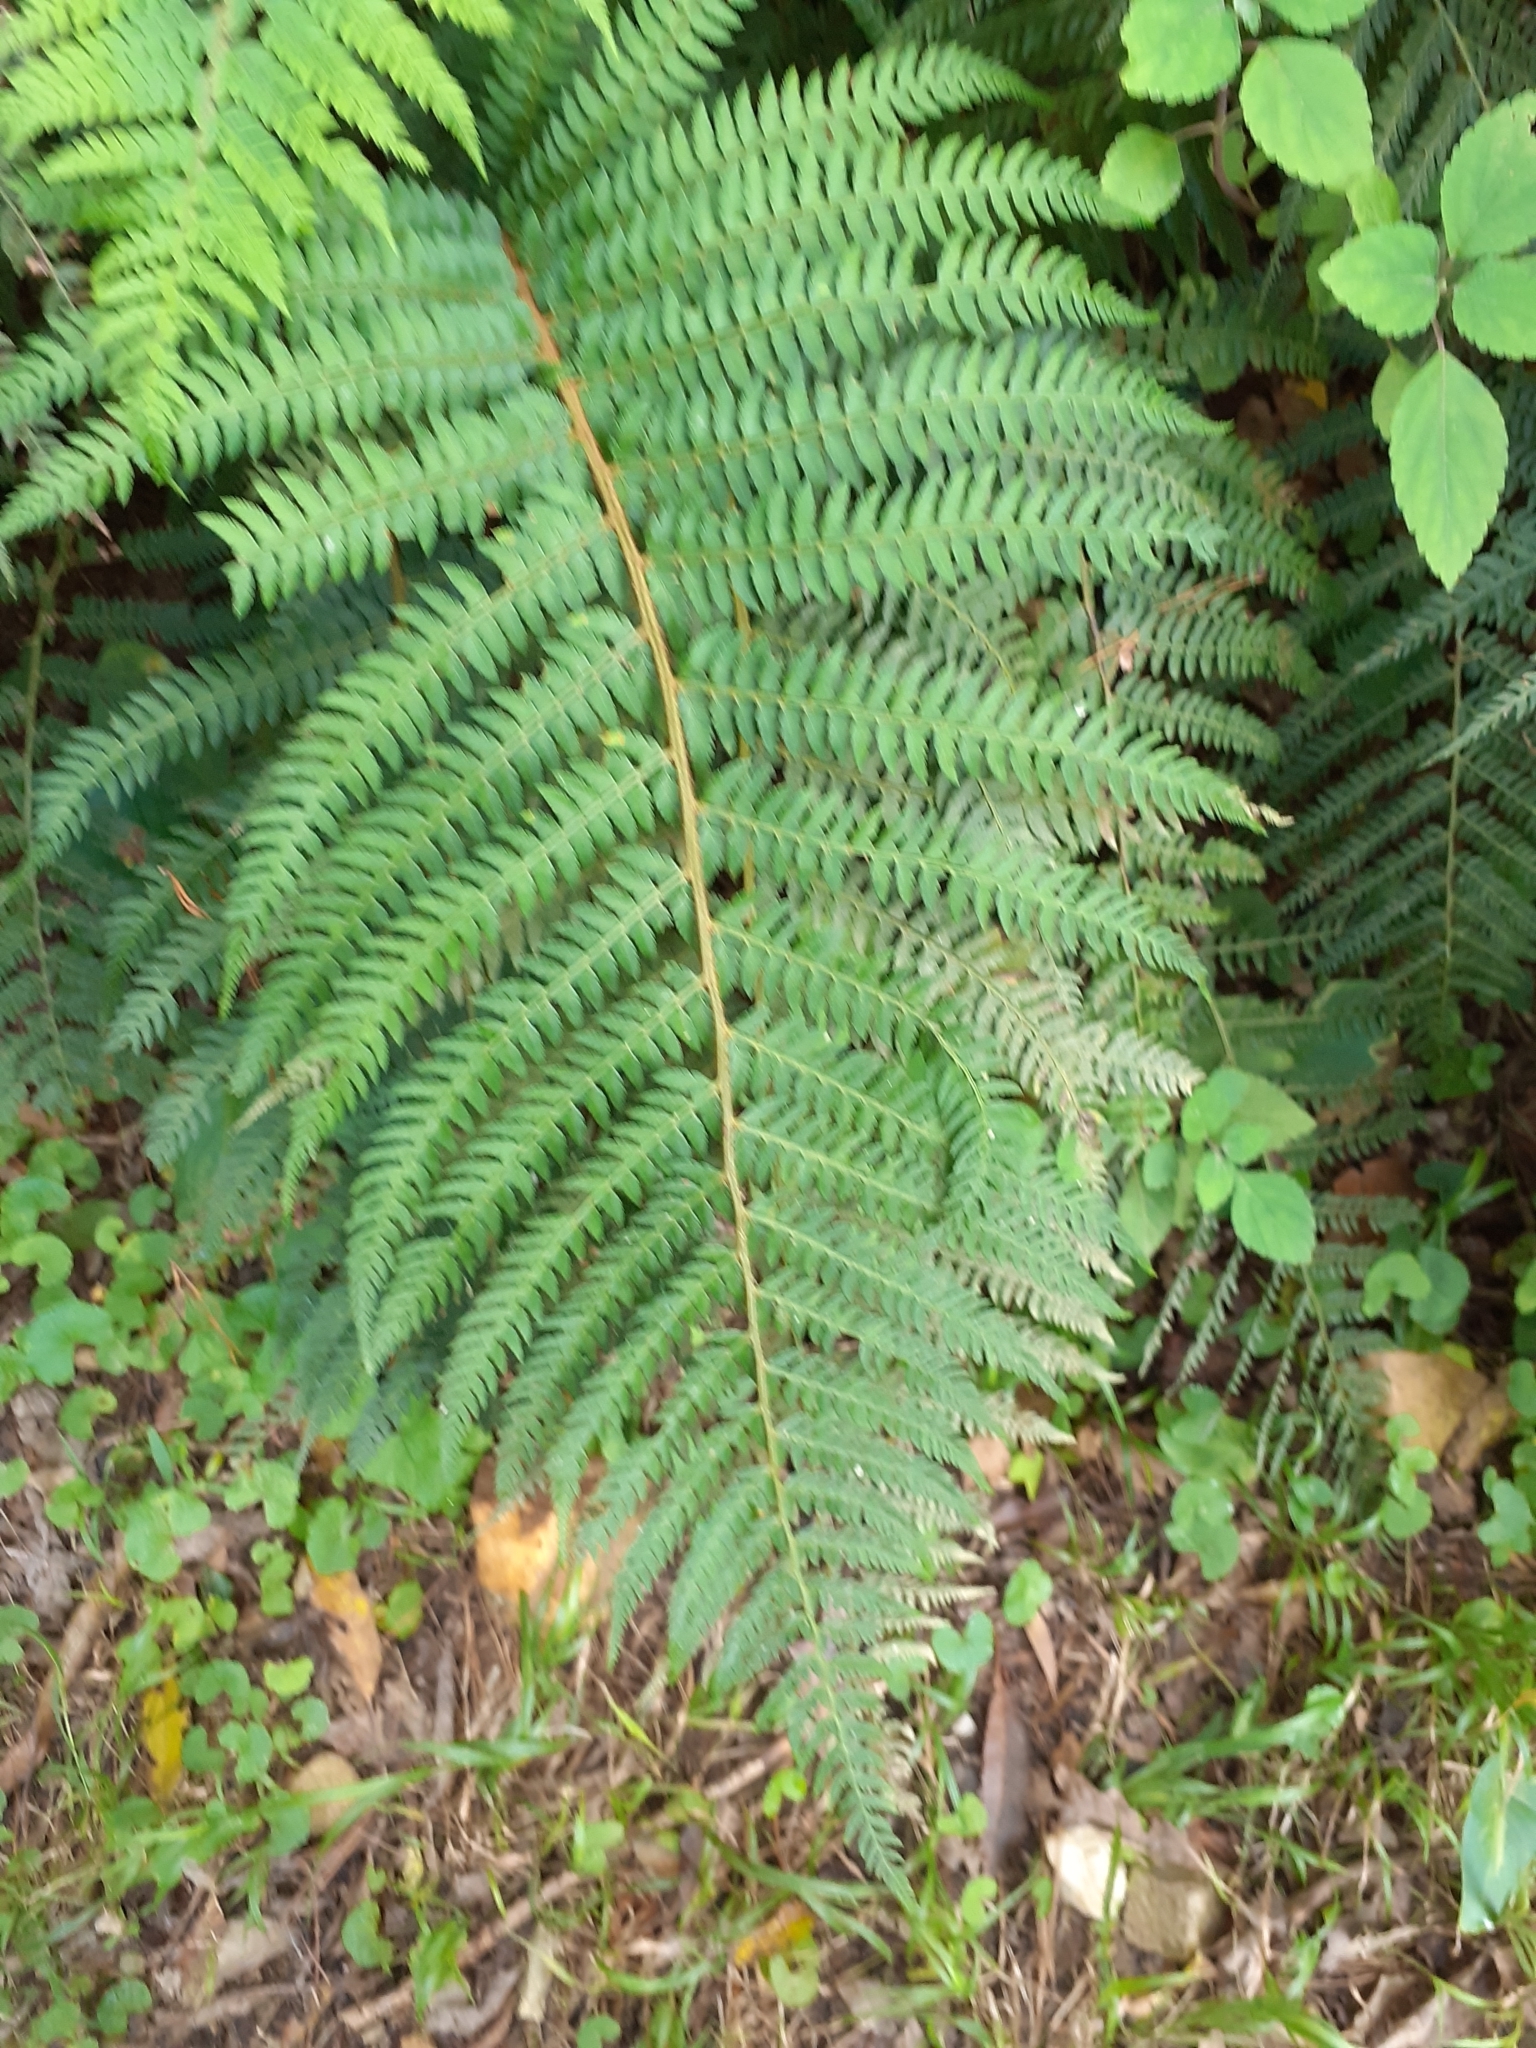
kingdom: Plantae
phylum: Tracheophyta
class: Polypodiopsida
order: Polypodiales
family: Dryopteridaceae
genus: Polystichum
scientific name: Polystichum pungens
